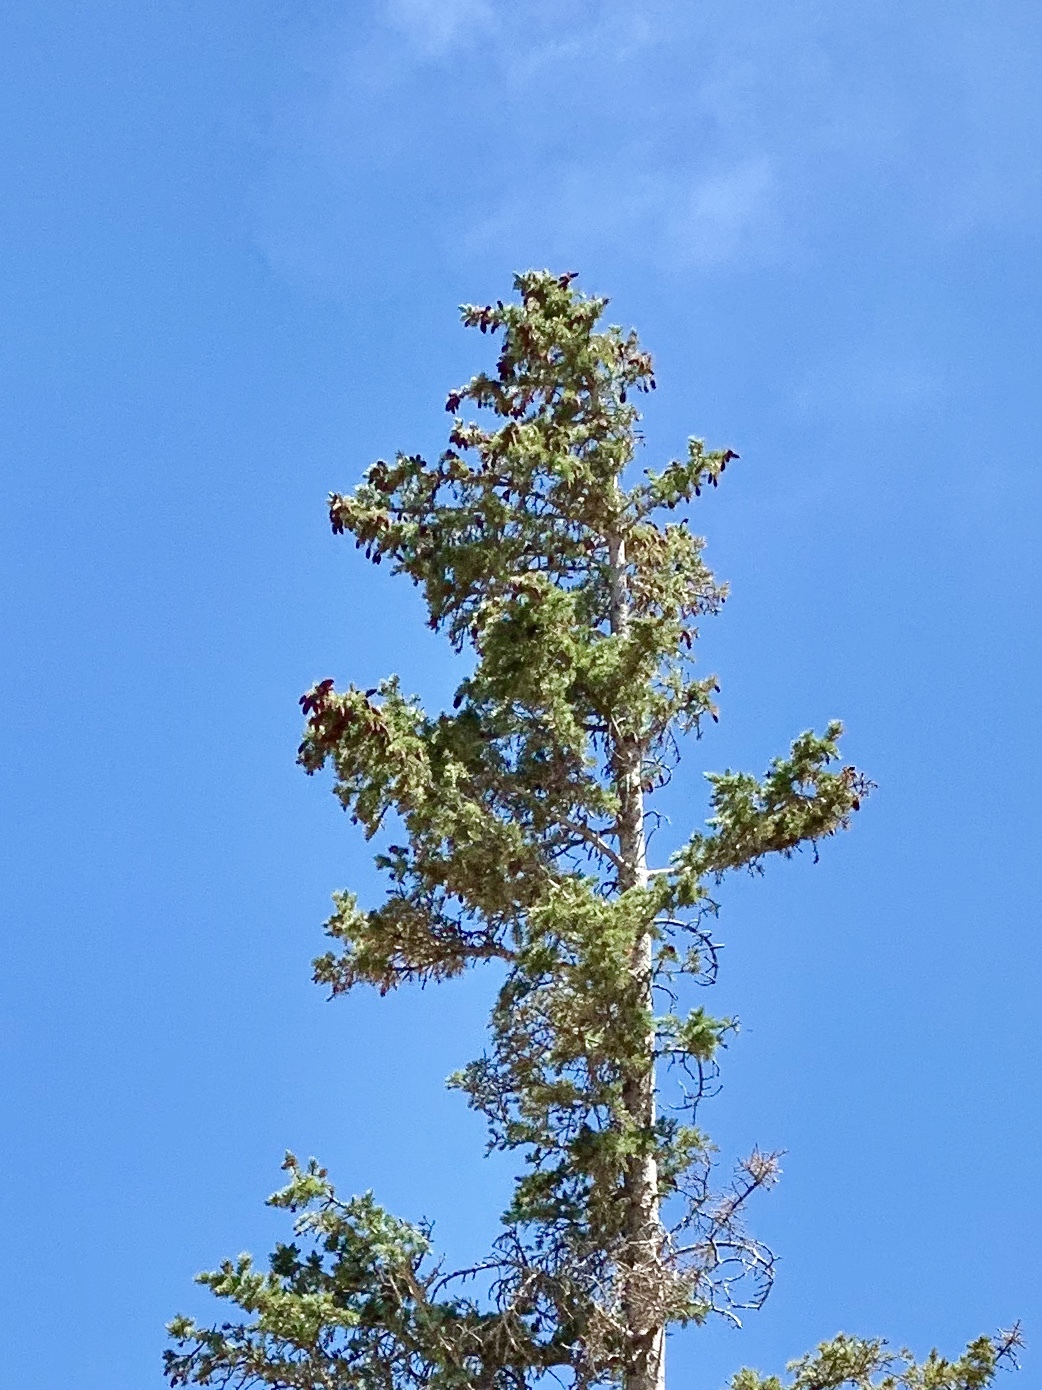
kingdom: Plantae
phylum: Tracheophyta
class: Pinopsida
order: Pinales
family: Pinaceae
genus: Picea
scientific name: Picea engelmannii
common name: Engelmann spruce
